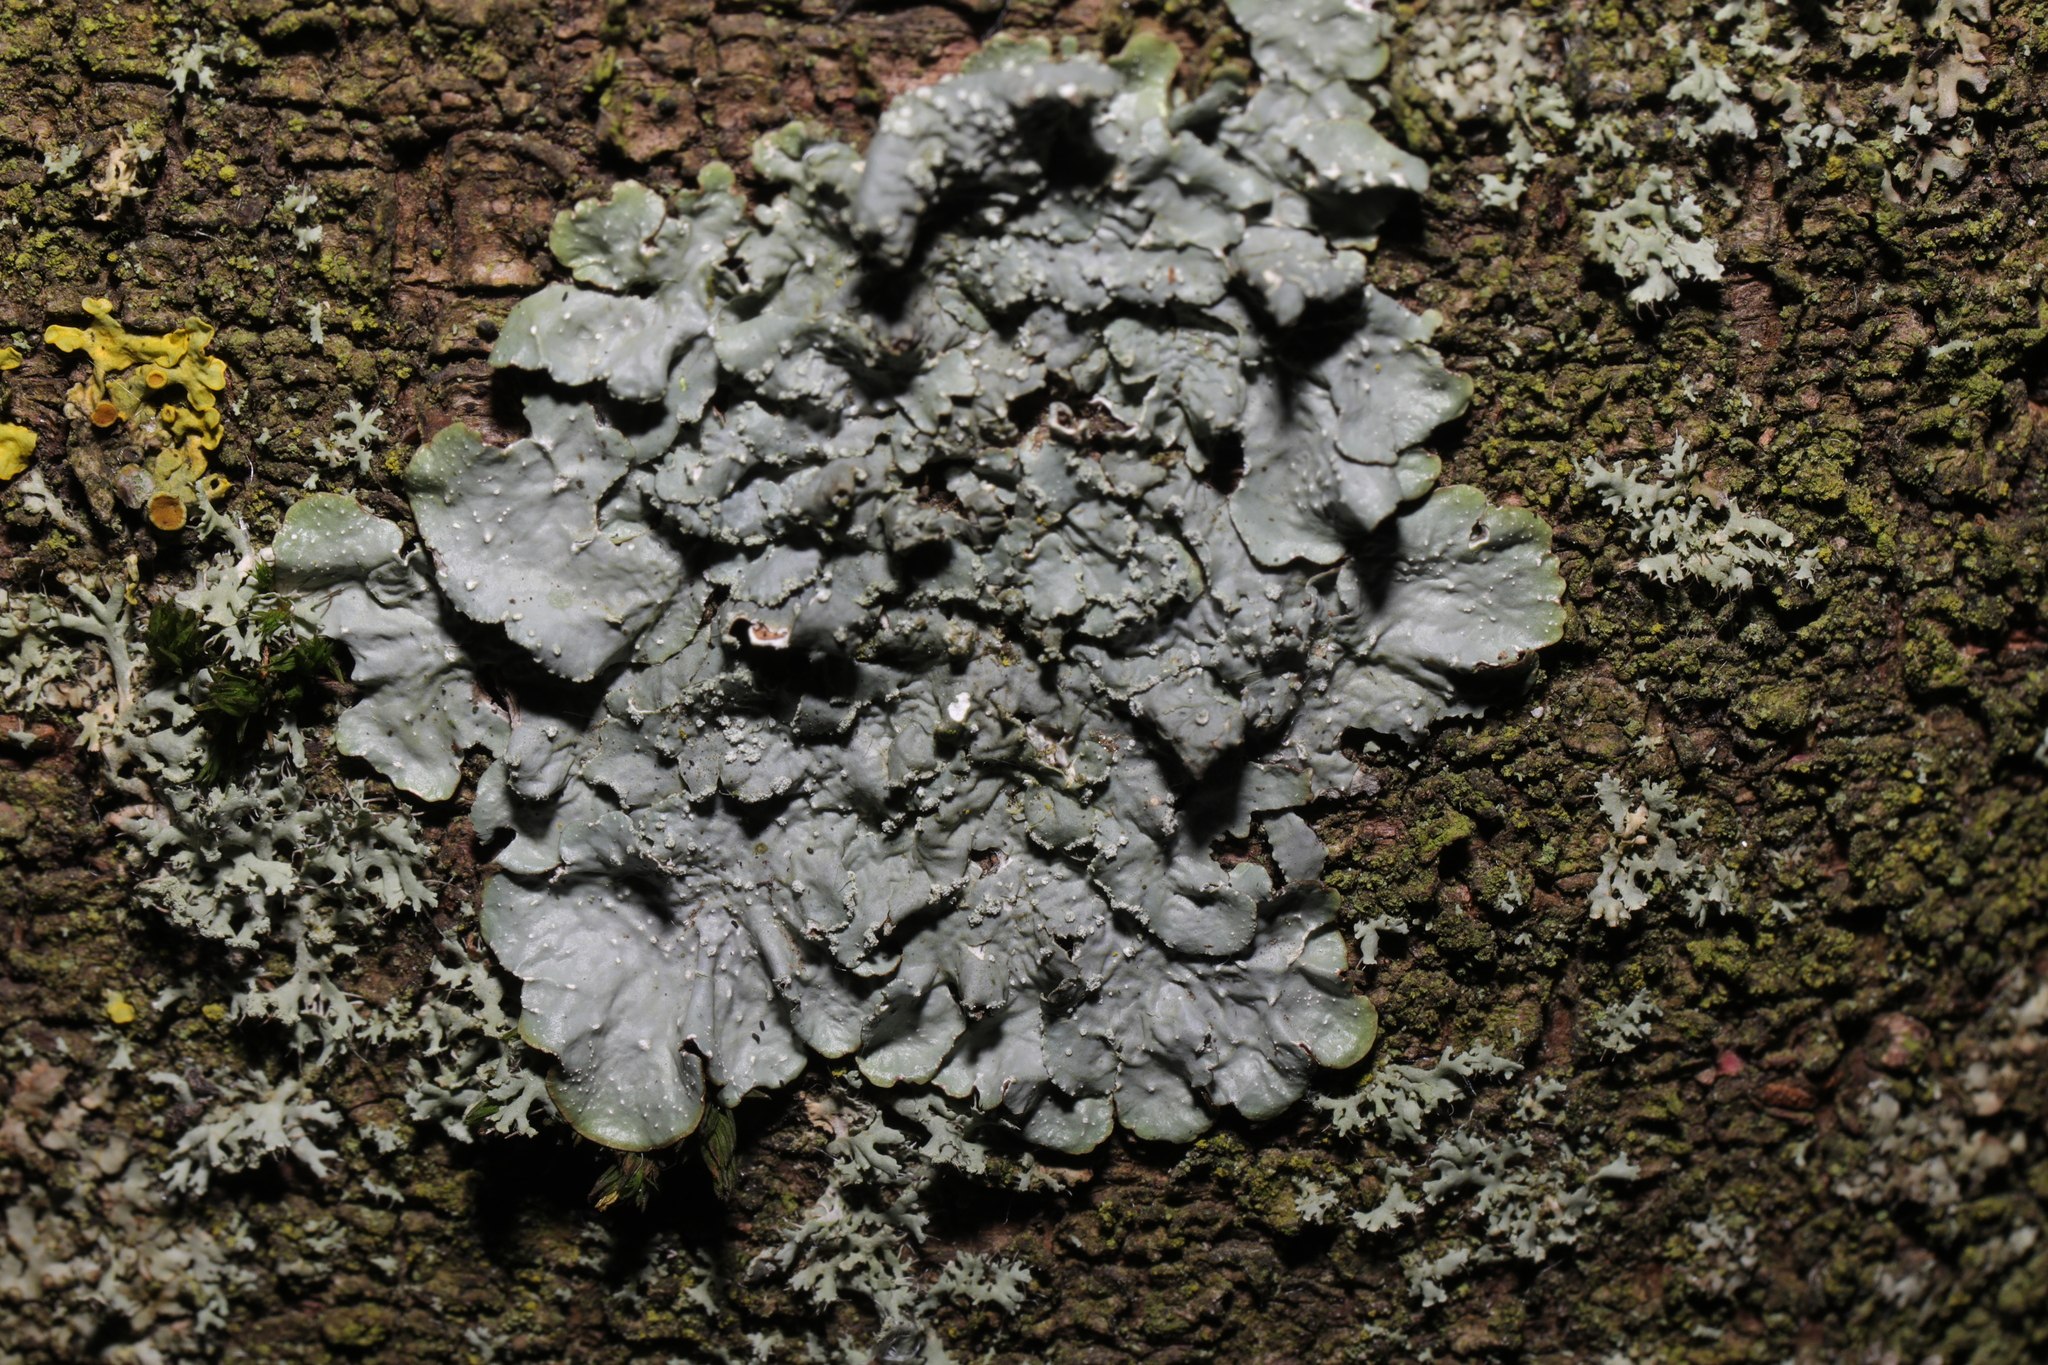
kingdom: Fungi
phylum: Ascomycota
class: Lecanoromycetes
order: Lecanorales
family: Parmeliaceae
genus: Punctelia
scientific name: Punctelia subrudecta
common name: Powdered speckled shield lichen
